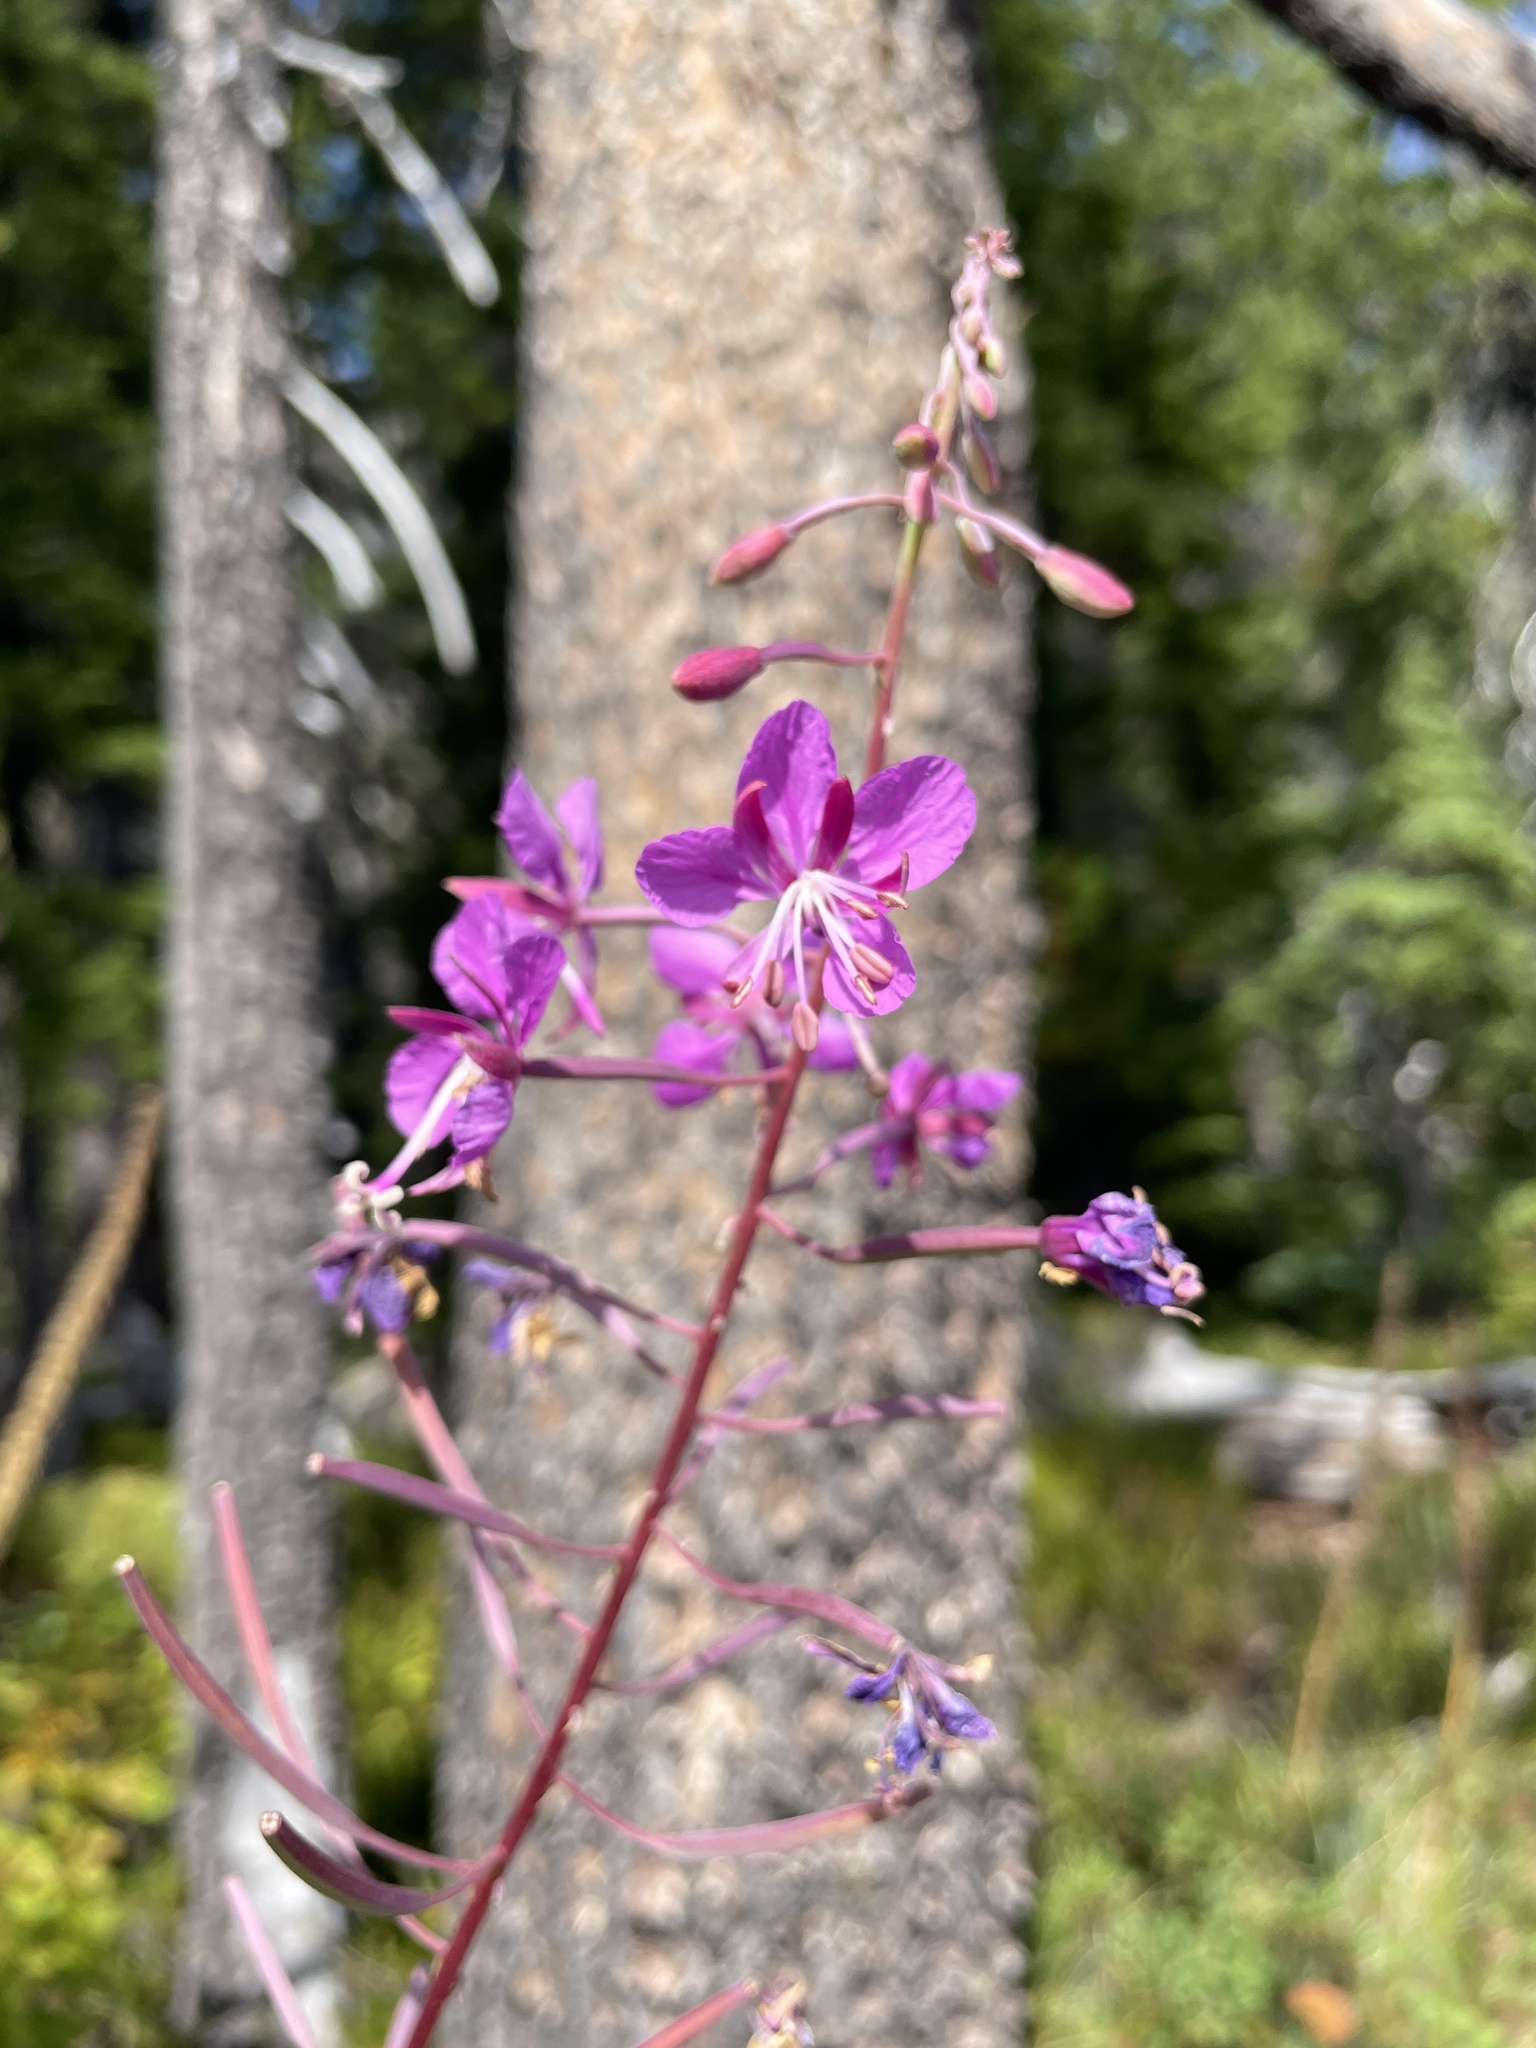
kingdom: Plantae
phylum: Tracheophyta
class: Magnoliopsida
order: Myrtales
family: Onagraceae
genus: Chamaenerion
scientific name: Chamaenerion angustifolium
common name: Fireweed
